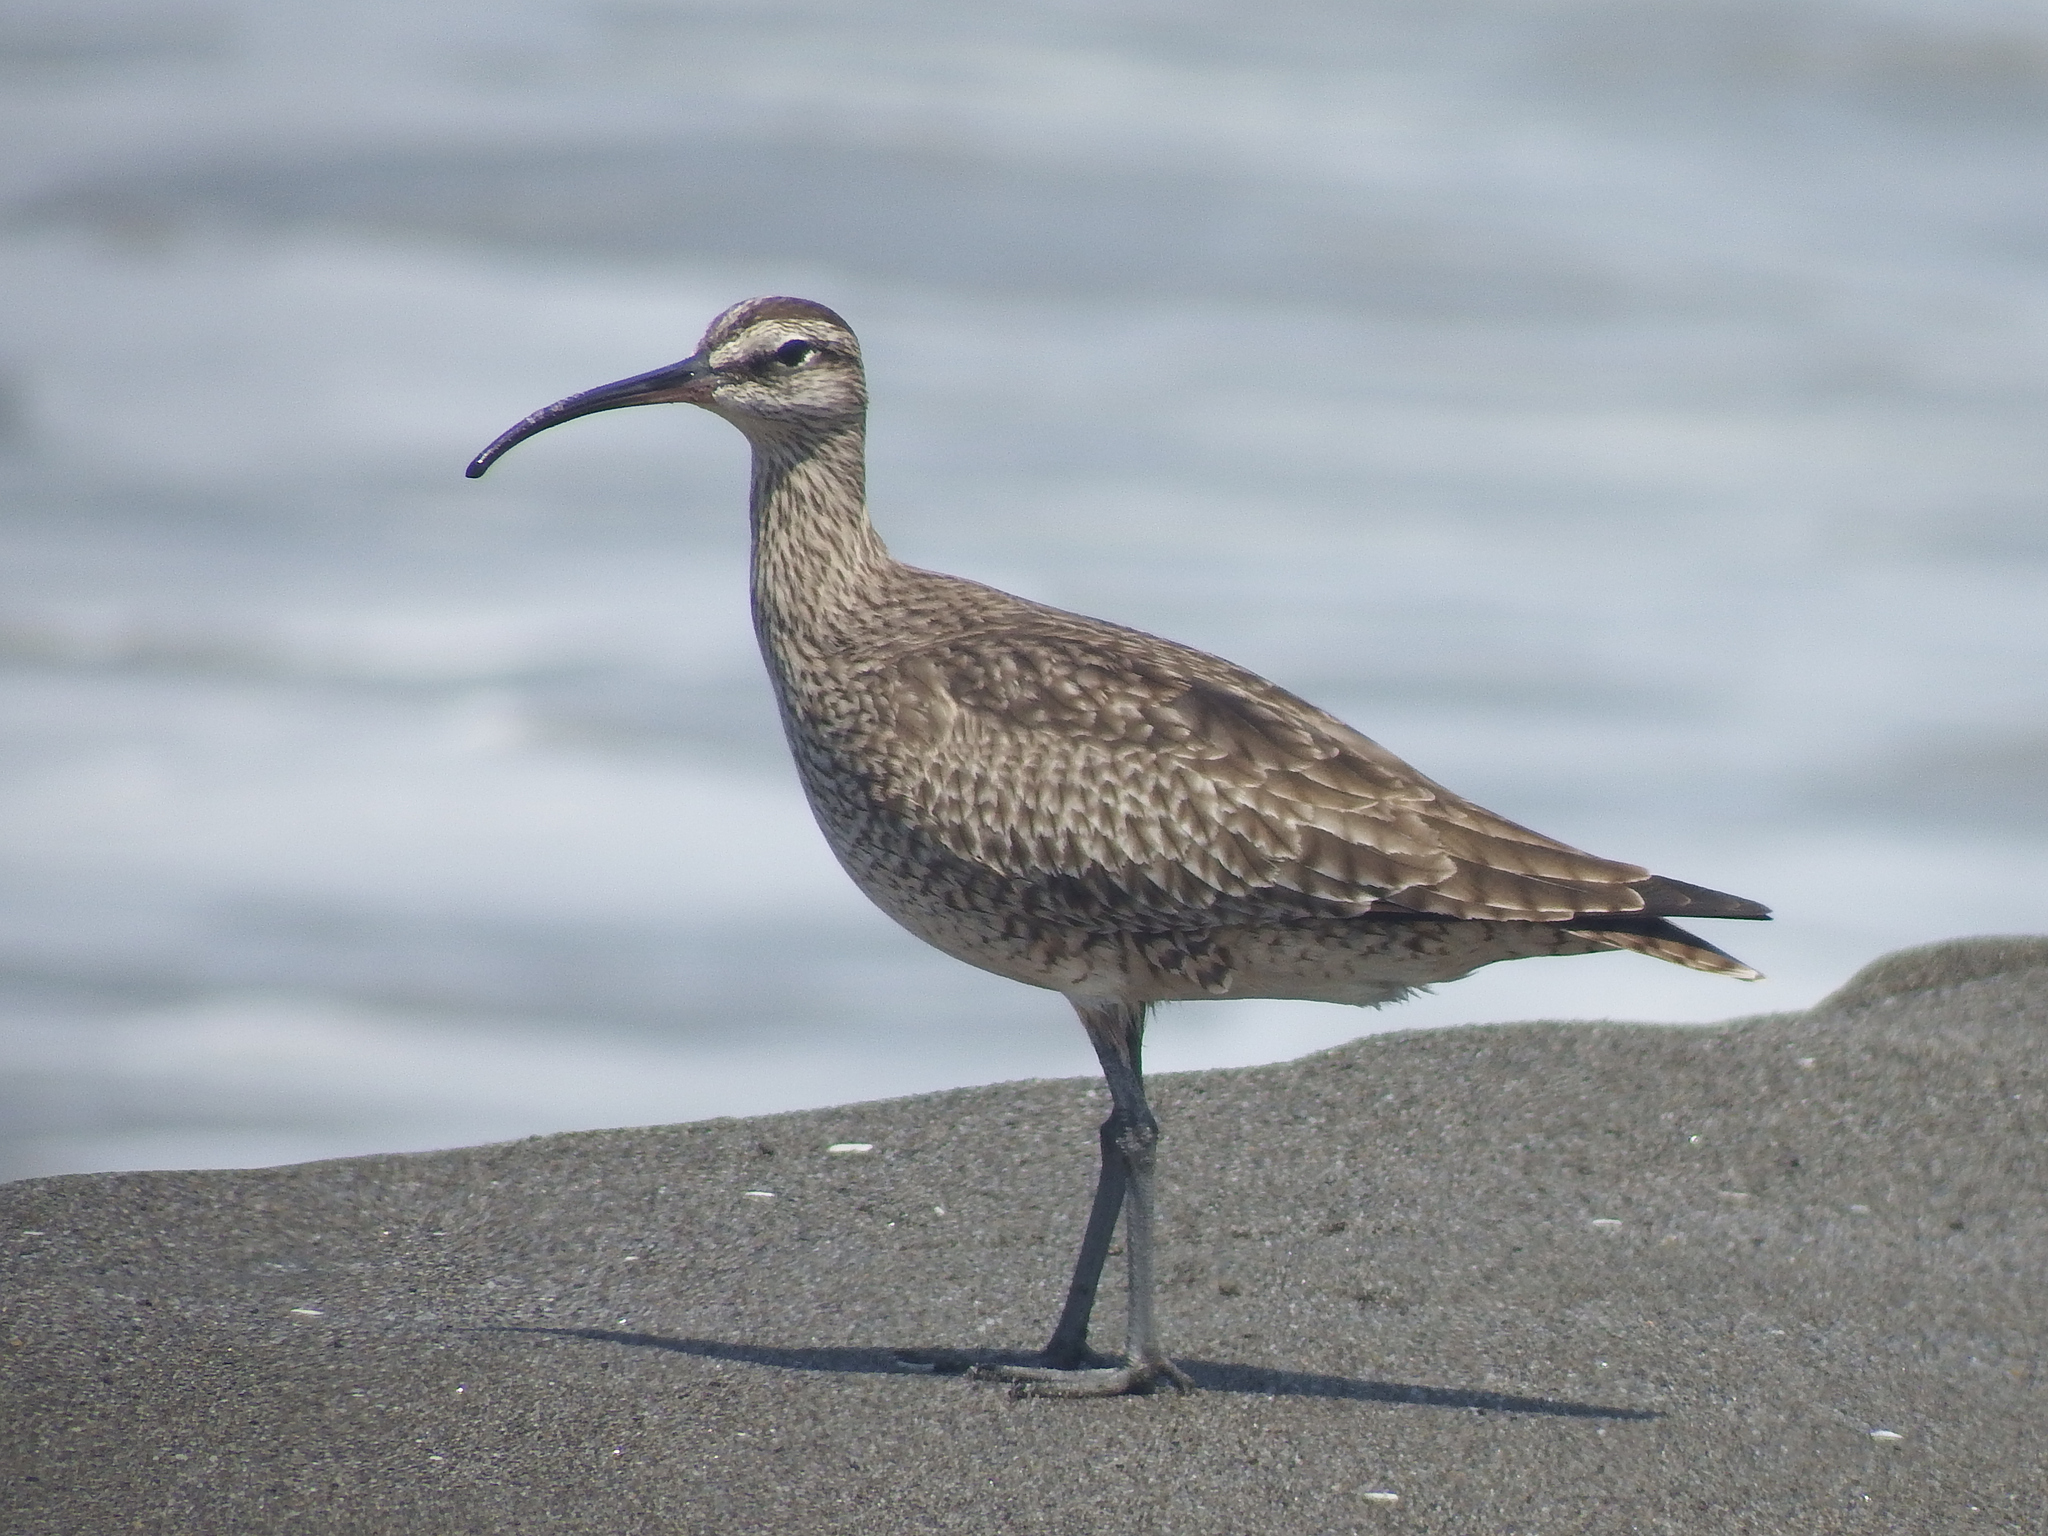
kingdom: Animalia
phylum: Chordata
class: Aves
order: Charadriiformes
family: Scolopacidae
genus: Numenius
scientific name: Numenius phaeopus
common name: Whimbrel
